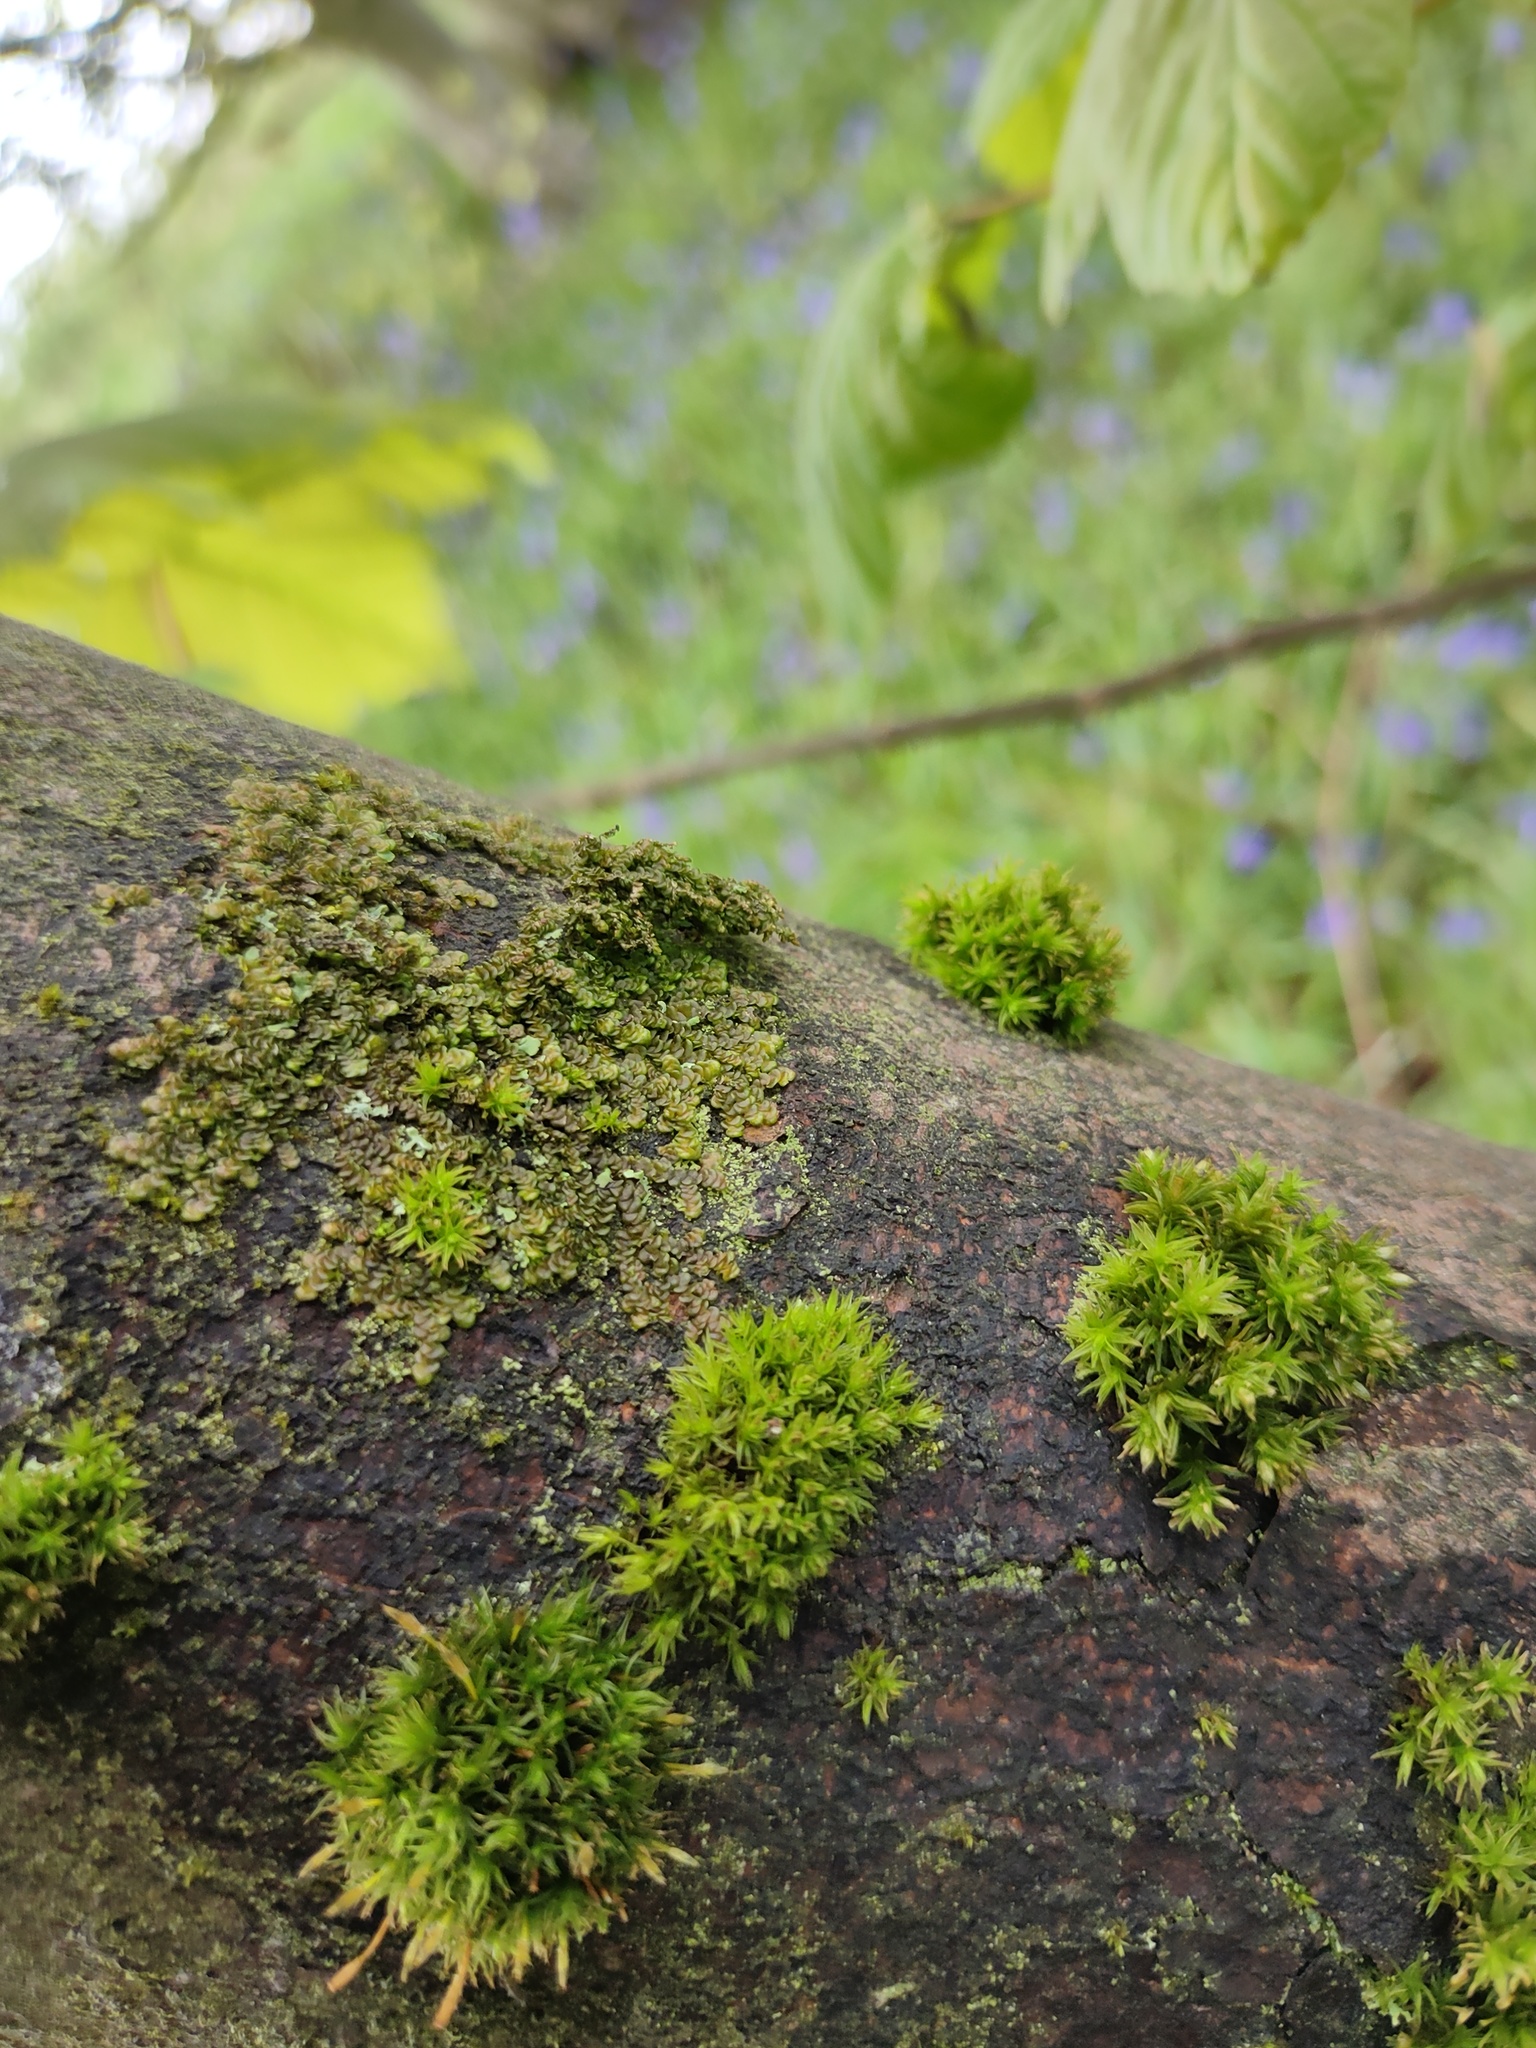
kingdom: Plantae
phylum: Marchantiophyta
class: Jungermanniopsida
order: Porellales
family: Frullaniaceae
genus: Frullania
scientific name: Frullania dilatata
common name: Dilated scalewort
